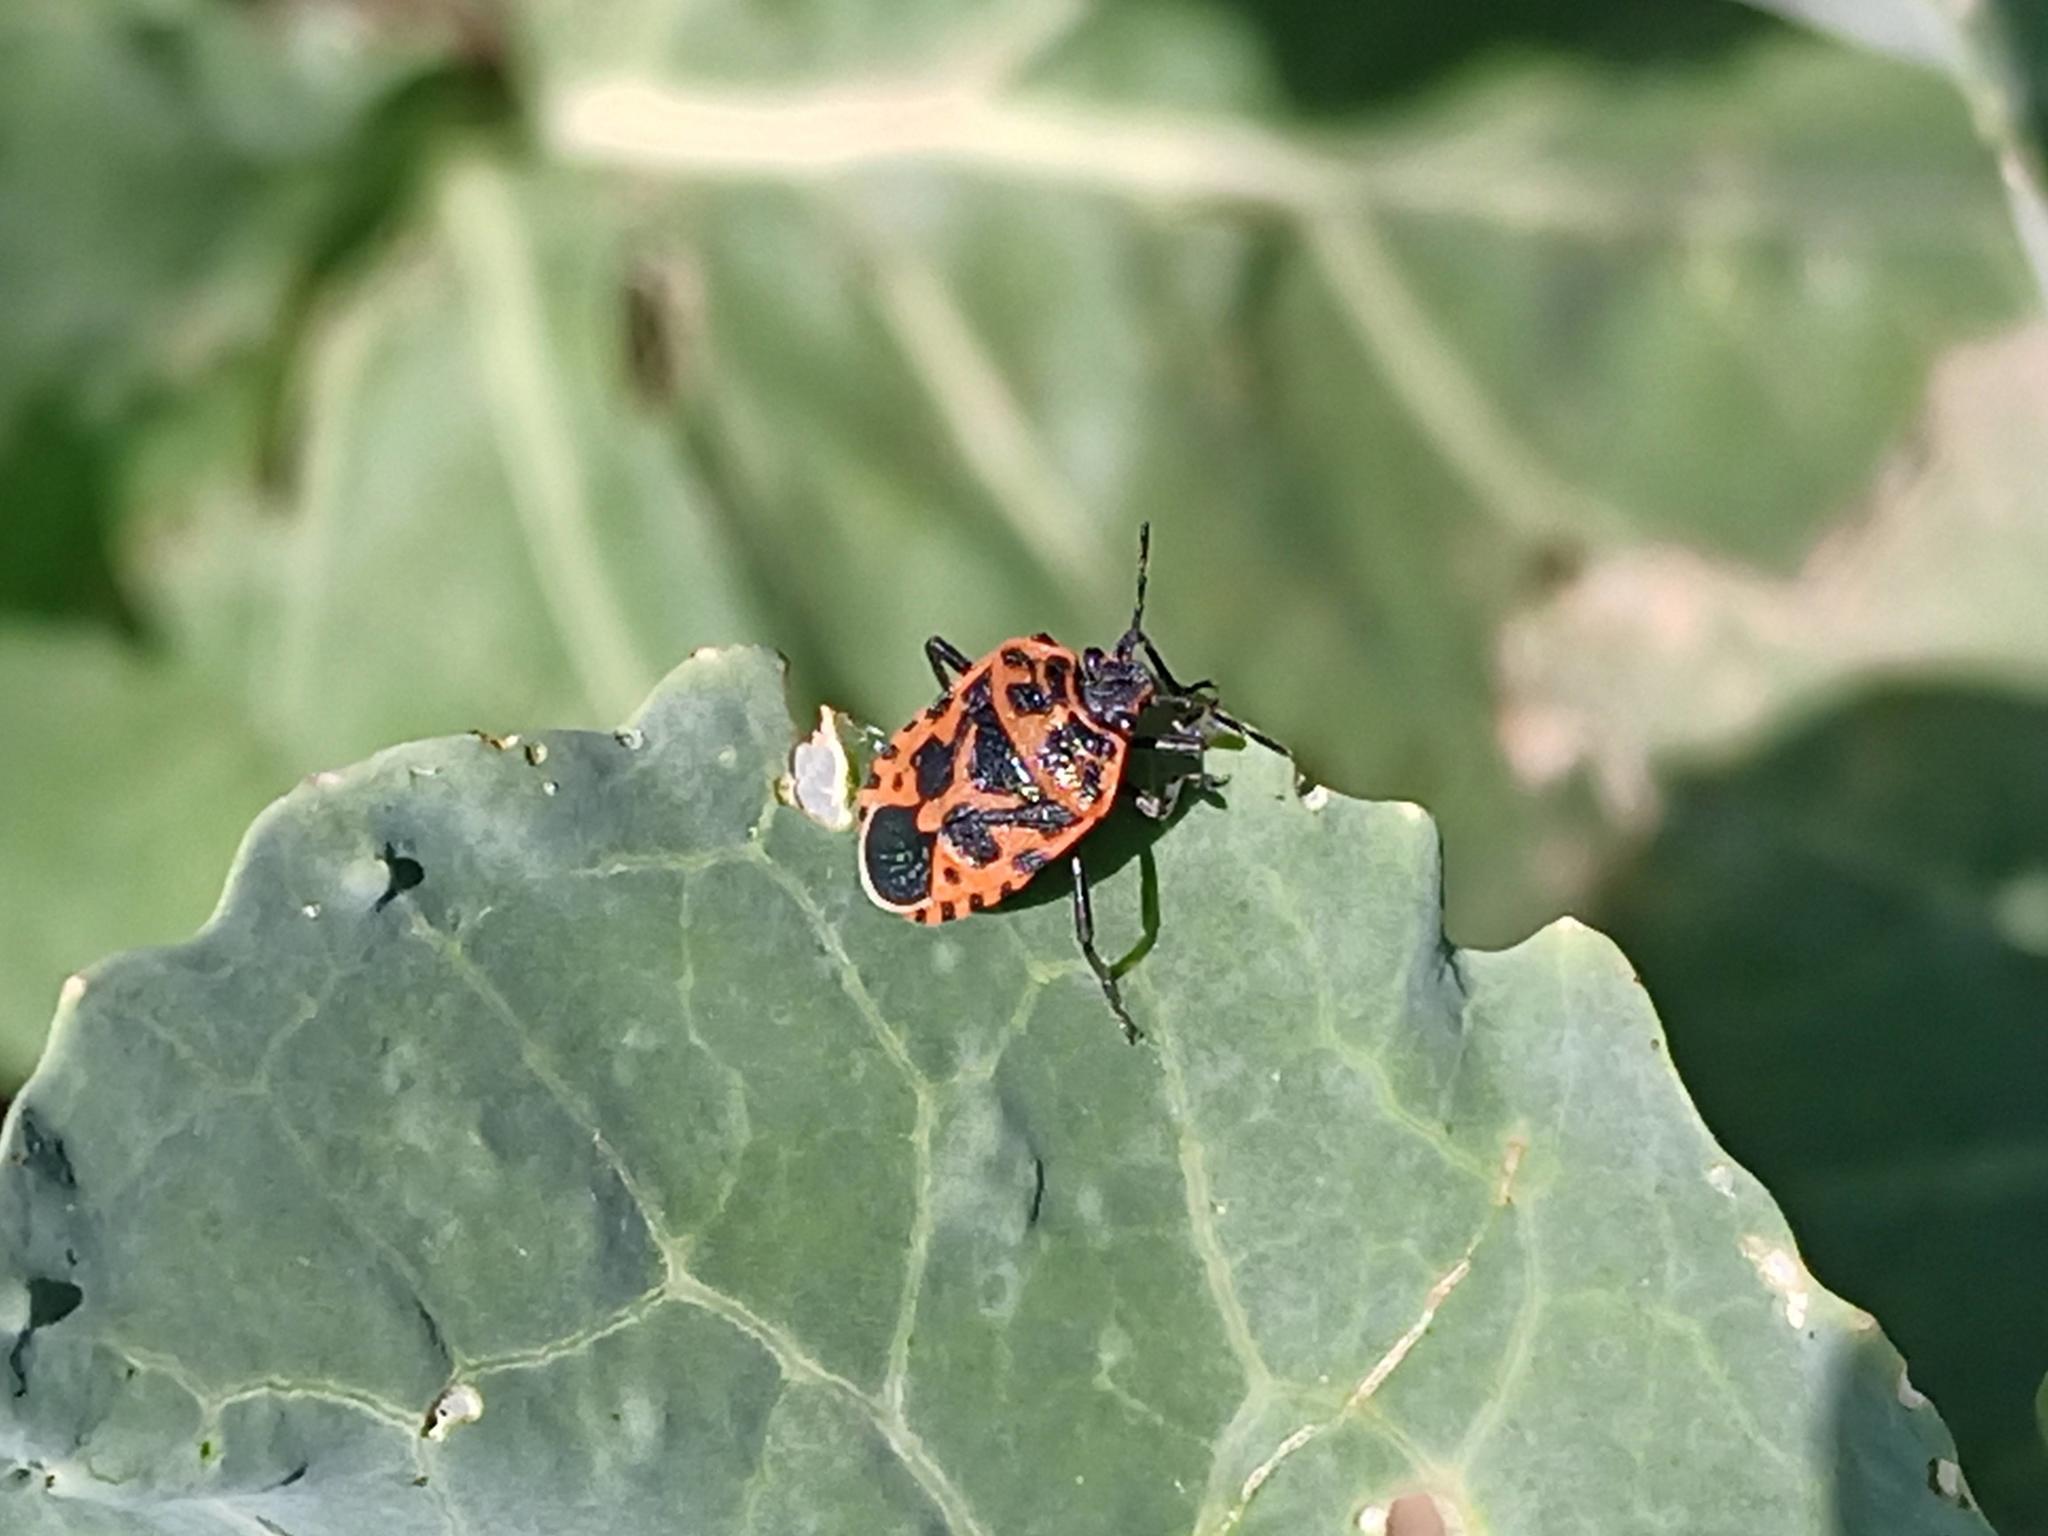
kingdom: Animalia
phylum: Arthropoda
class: Insecta
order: Hemiptera
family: Pentatomidae
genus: Eurydema
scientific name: Eurydema ventralis
